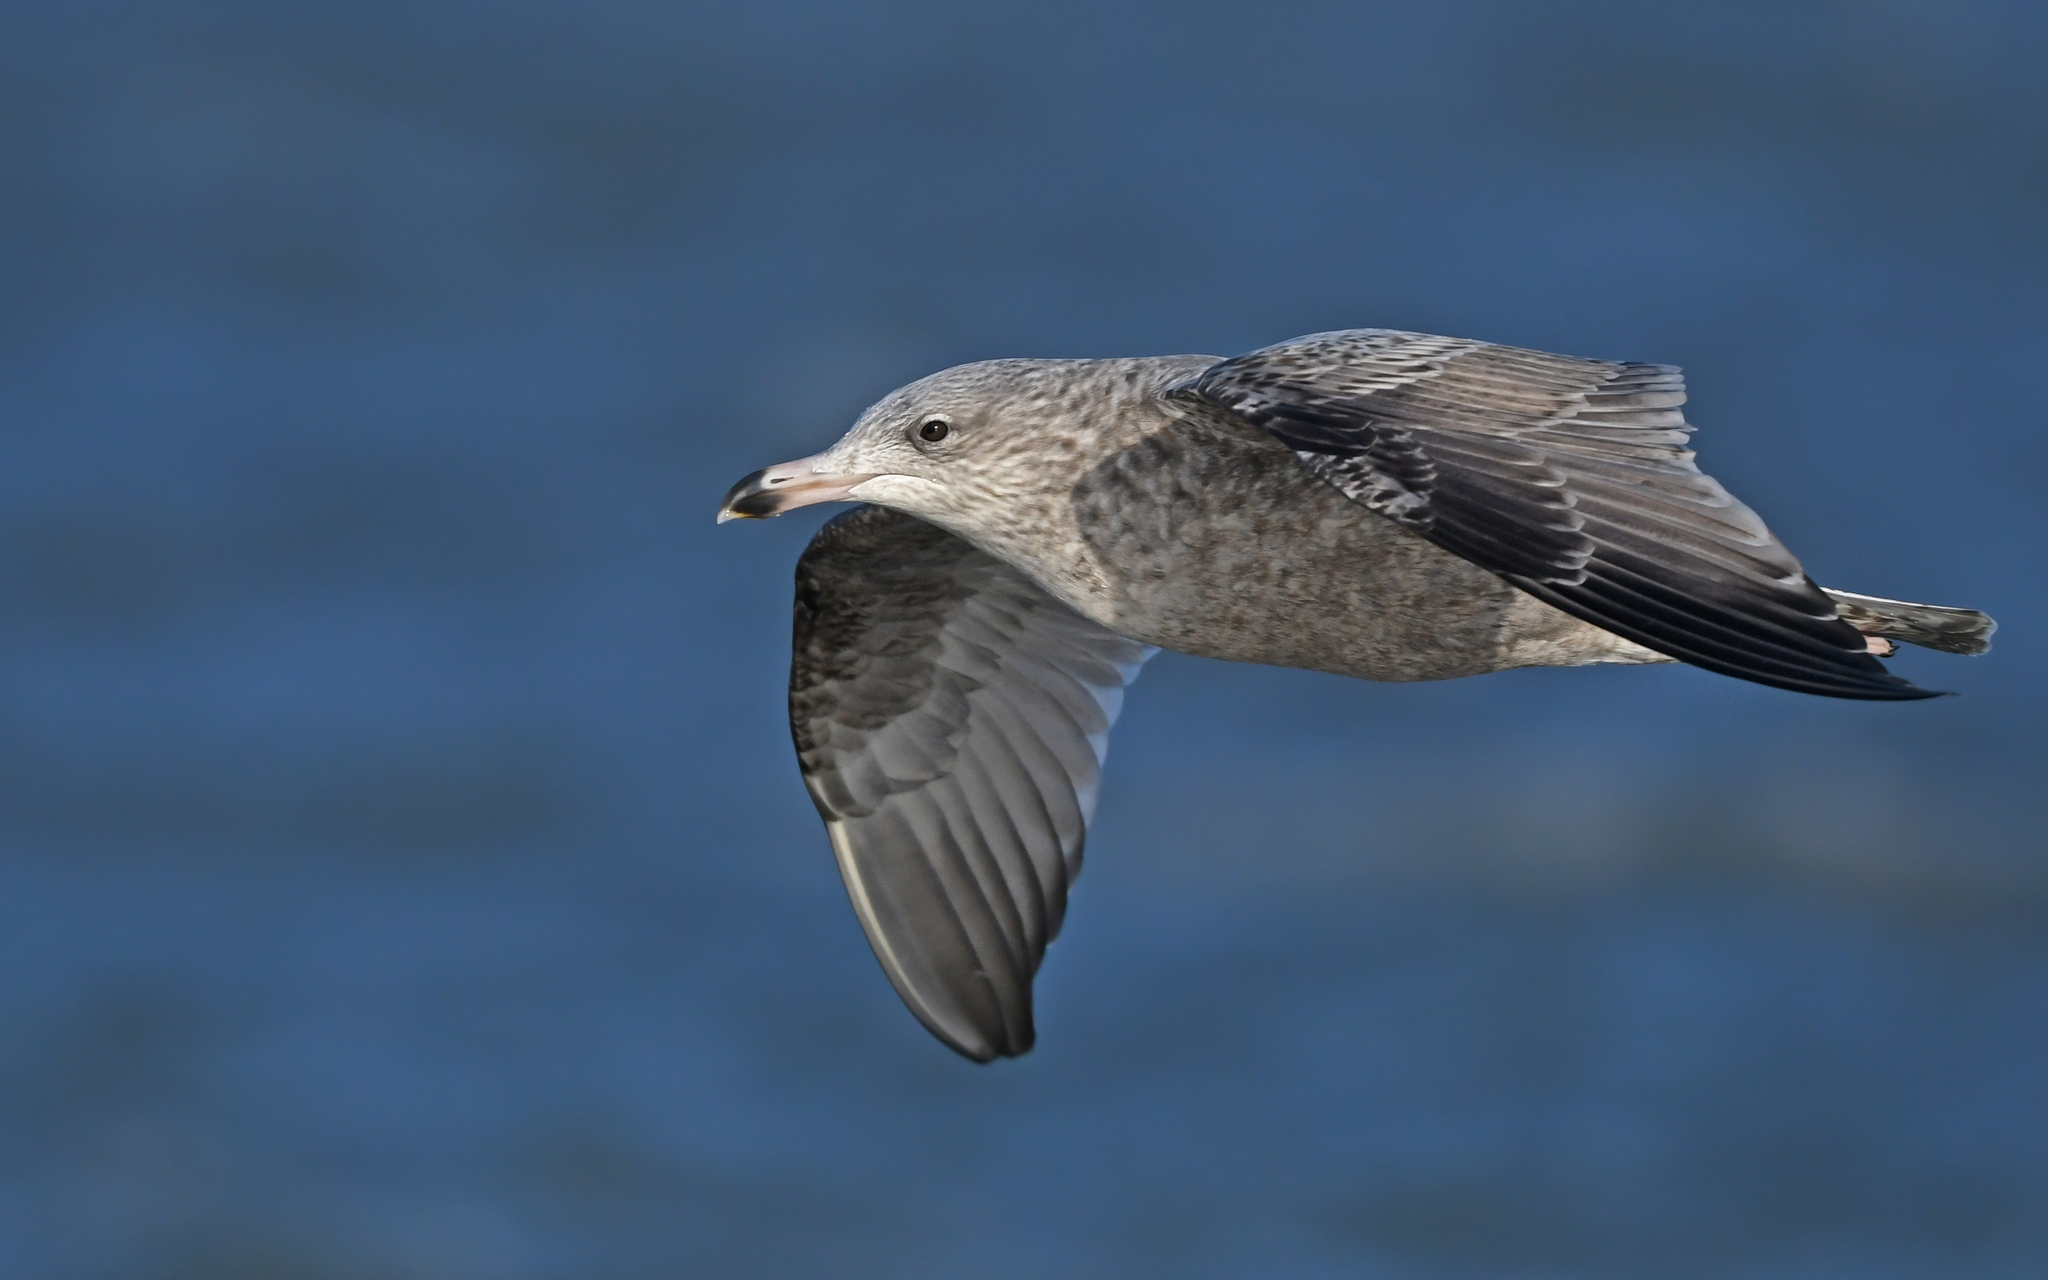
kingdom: Animalia
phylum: Chordata
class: Aves
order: Charadriiformes
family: Laridae
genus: Larus
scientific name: Larus argentatus
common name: Herring gull
